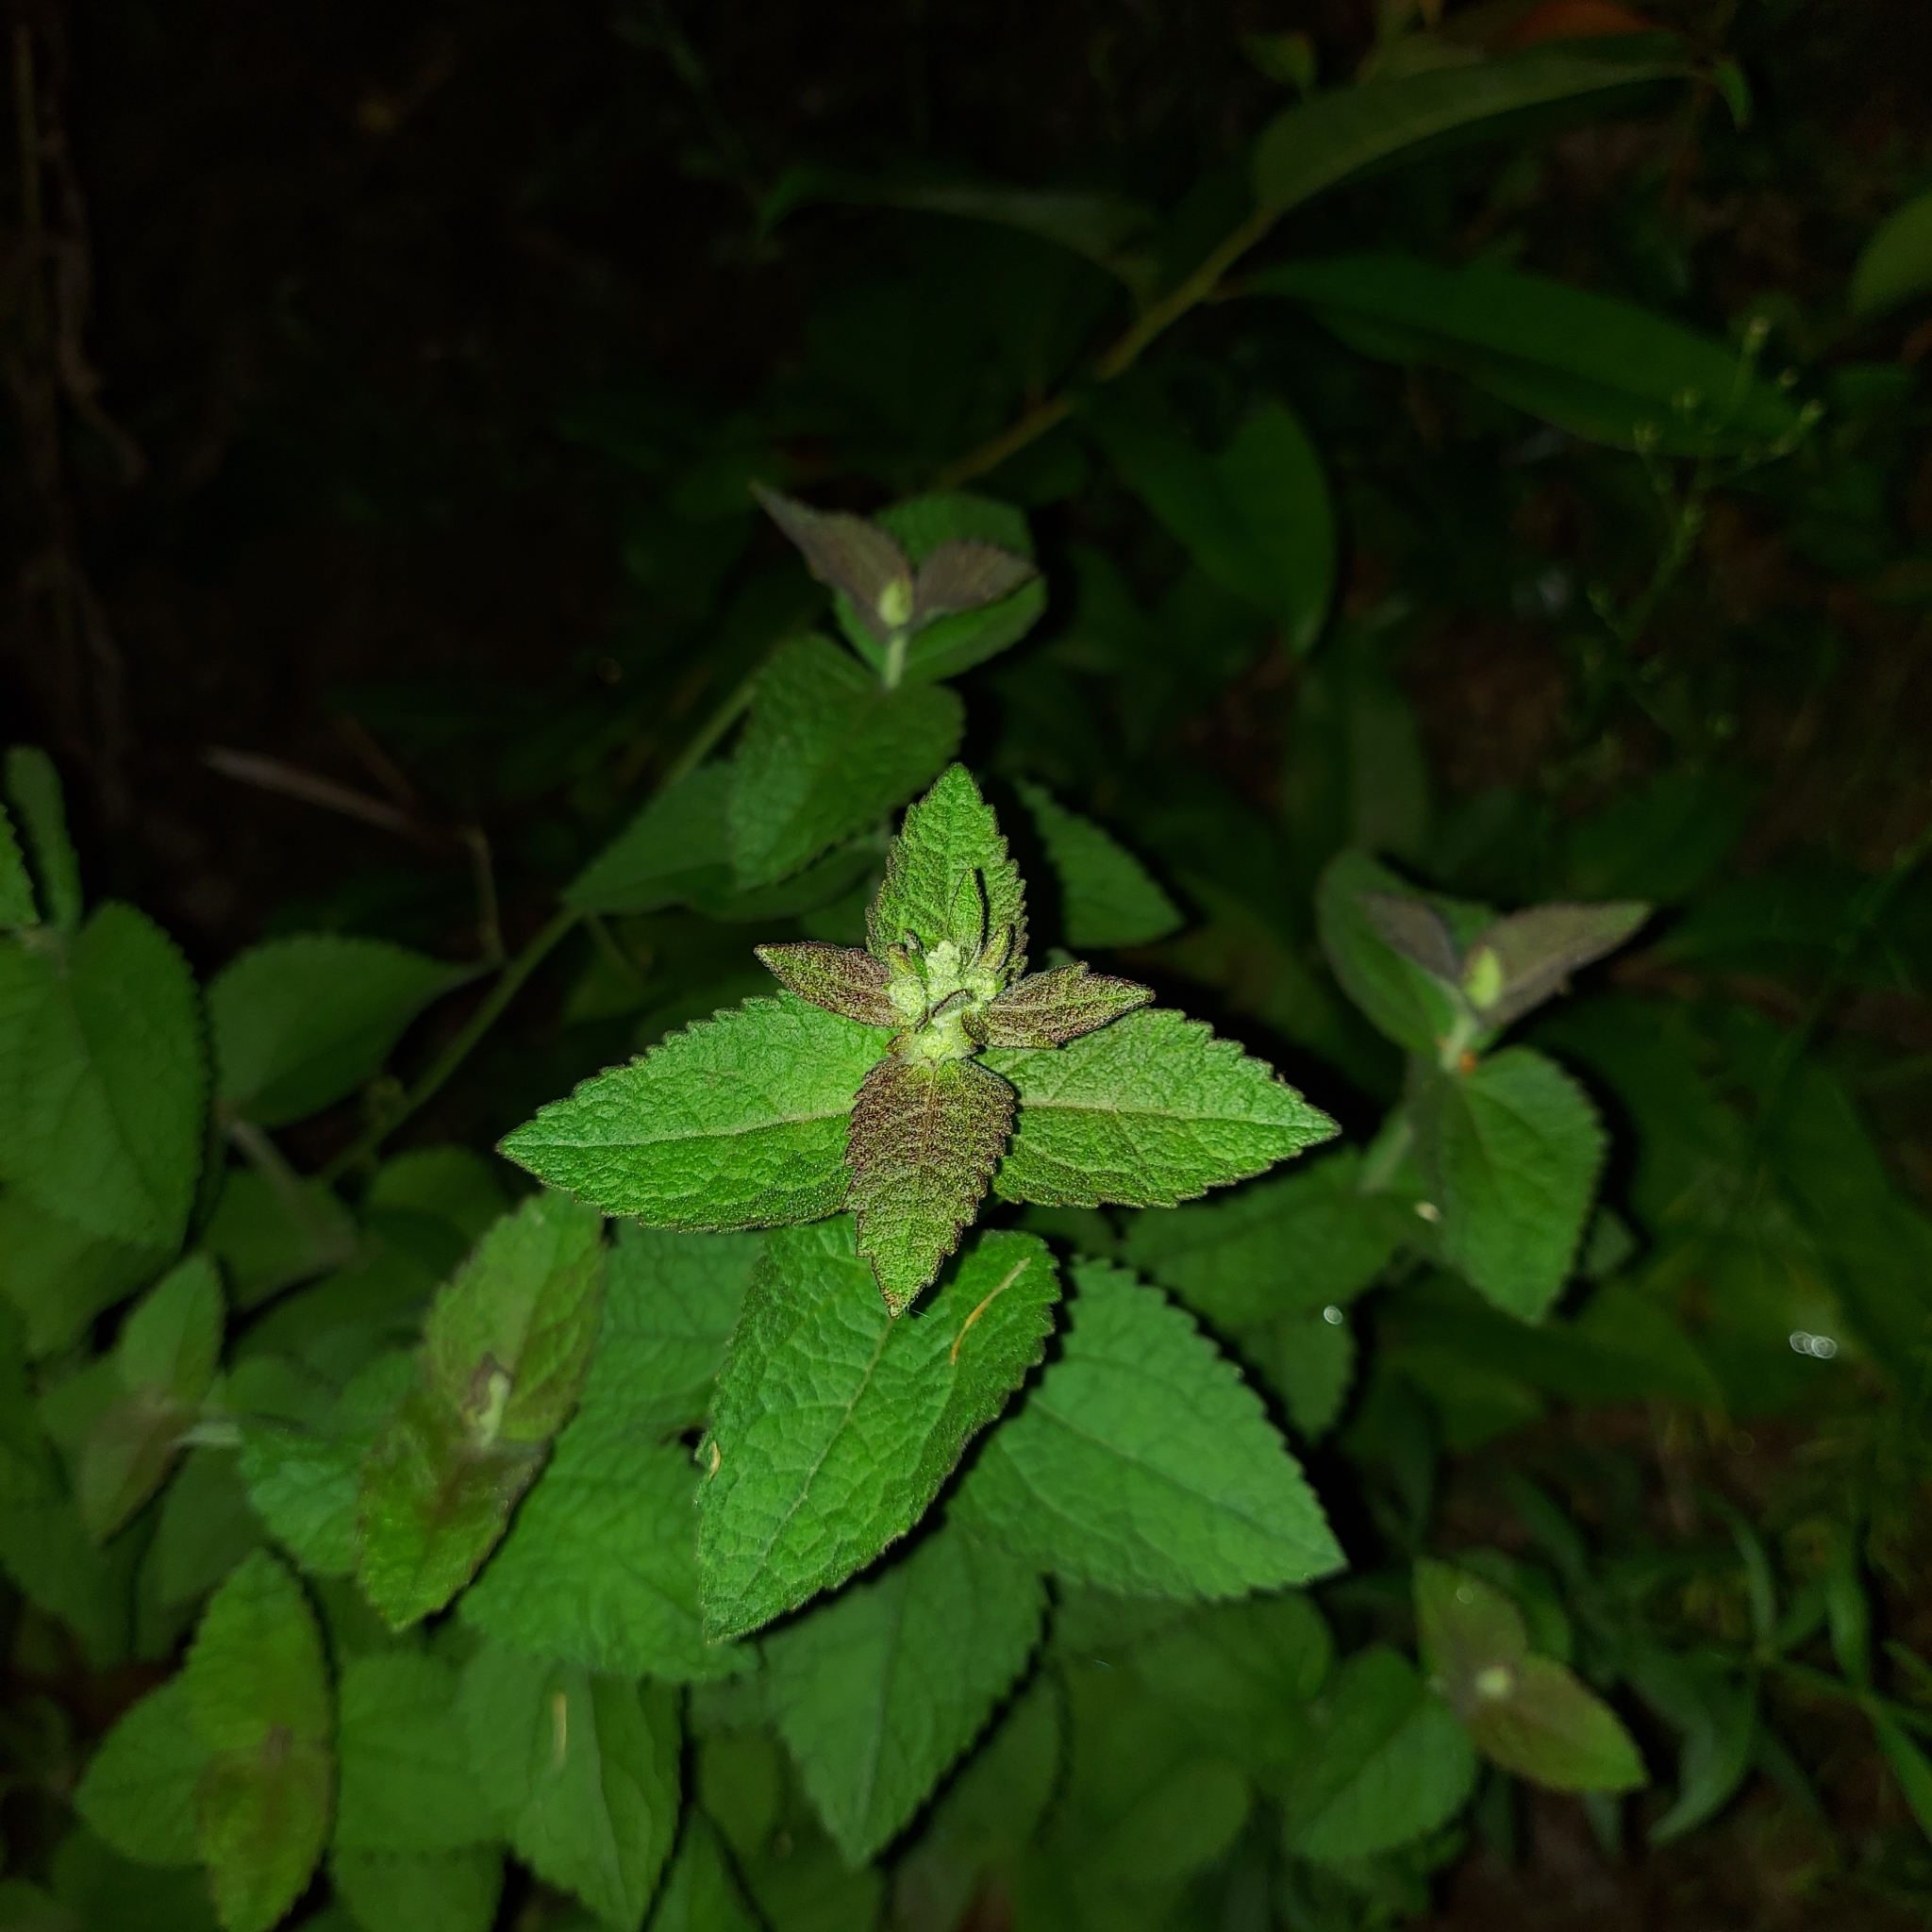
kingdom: Plantae
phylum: Tracheophyta
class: Magnoliopsida
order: Asterales
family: Asteraceae
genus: Eupatorium
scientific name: Eupatorium cordigerum
